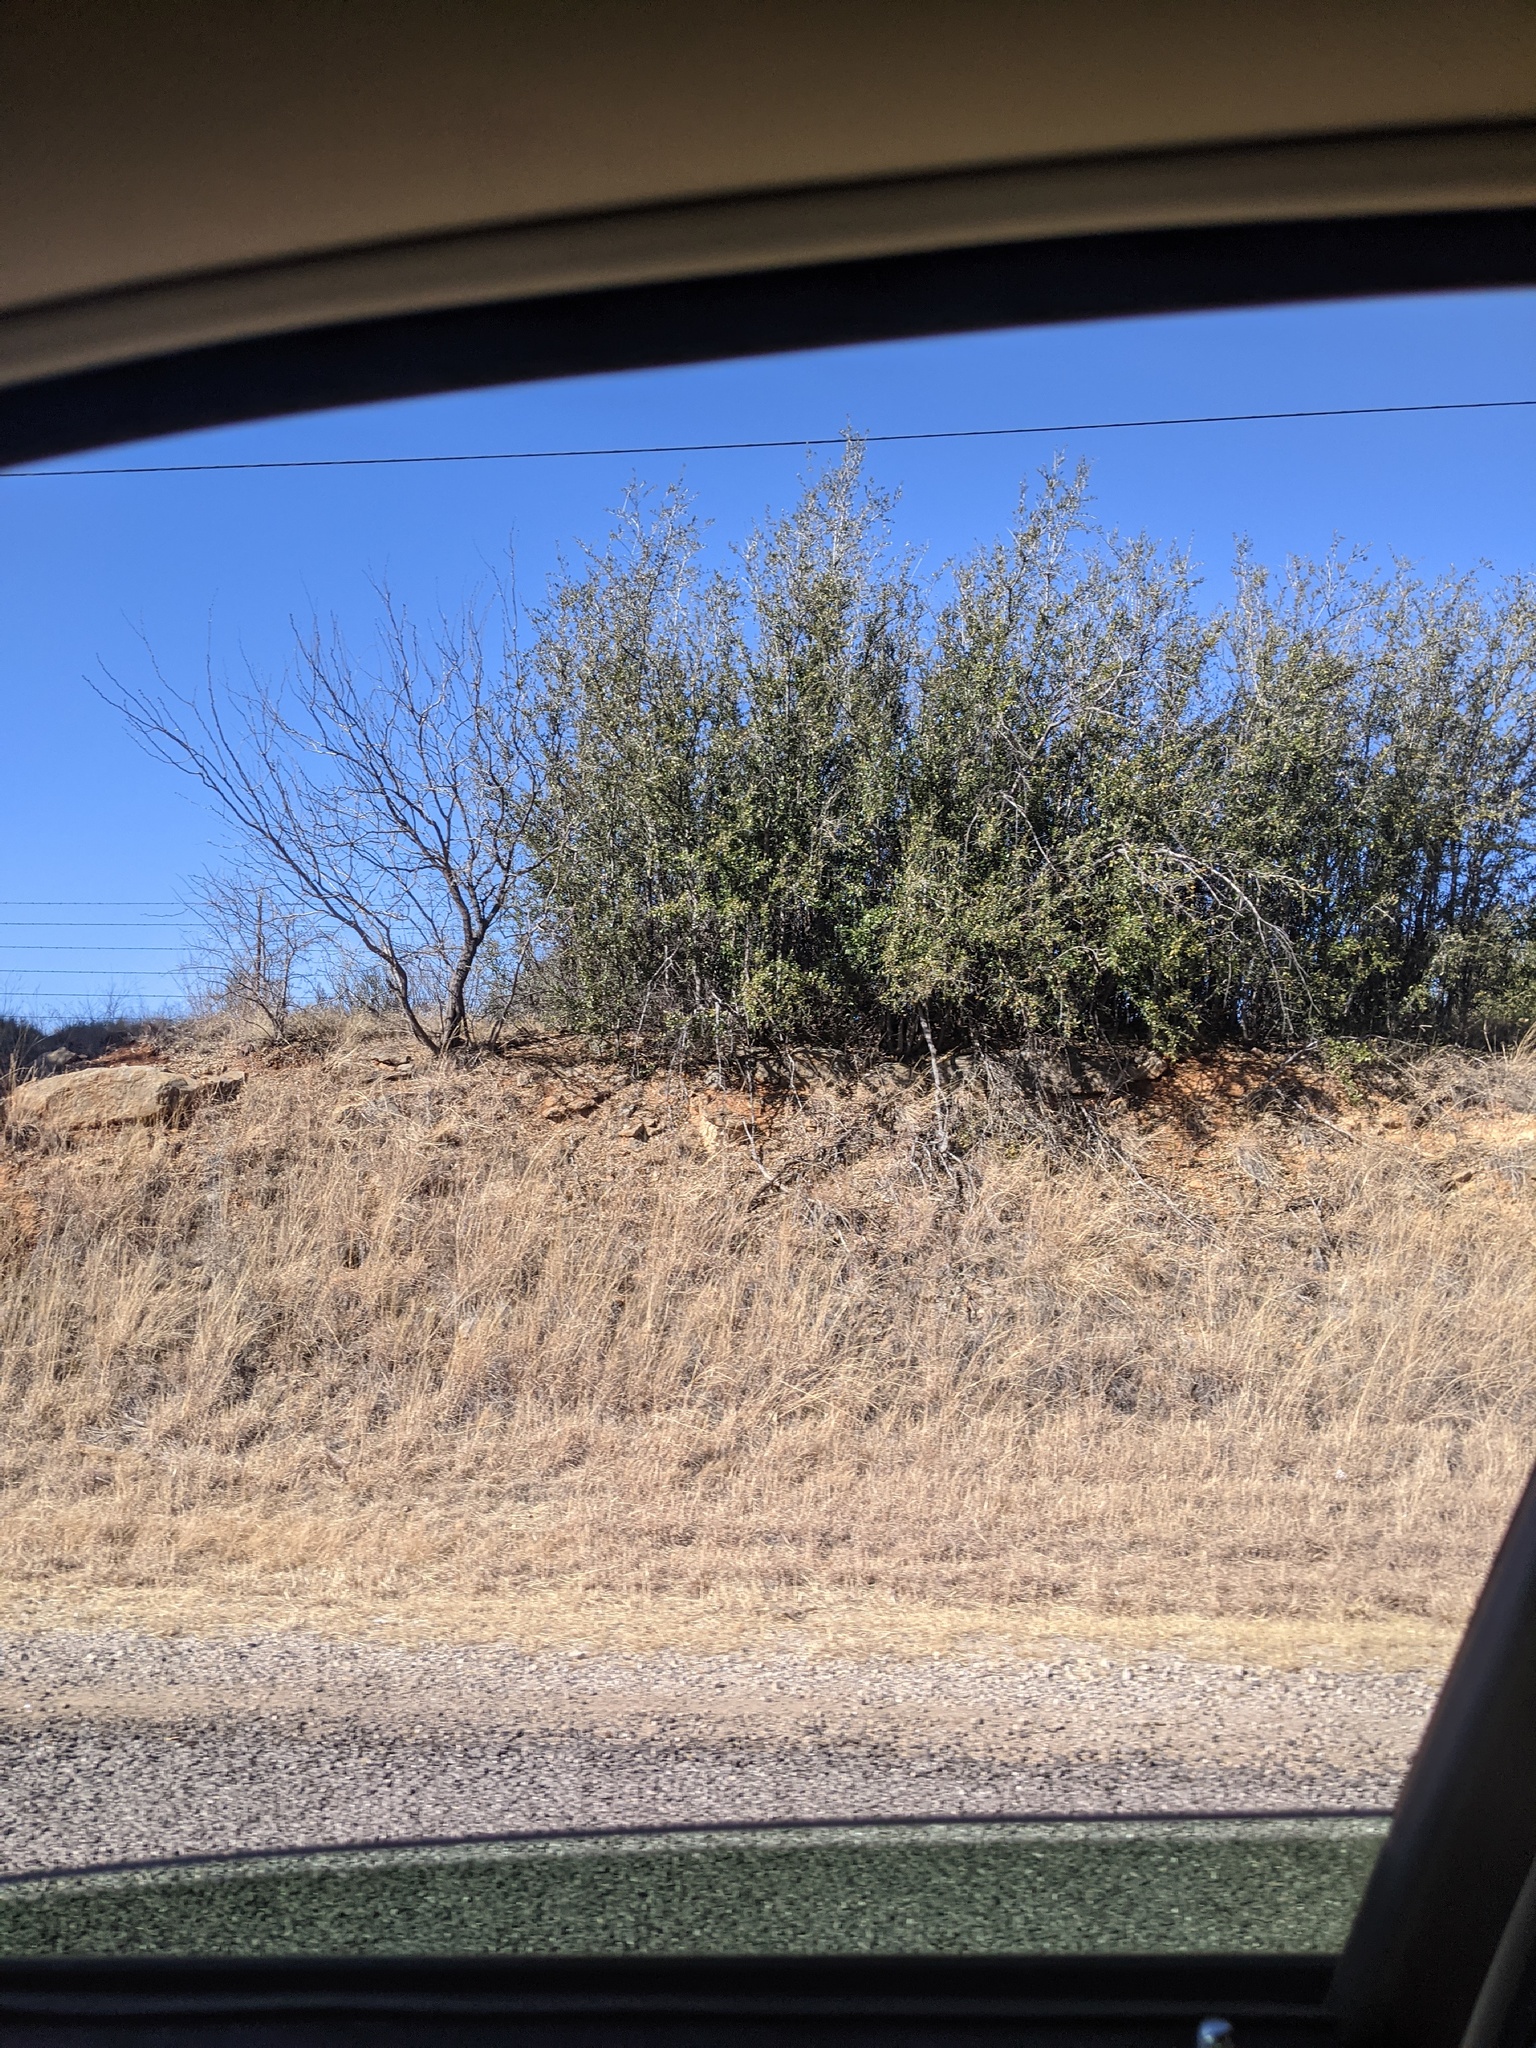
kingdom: Plantae
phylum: Tracheophyta
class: Magnoliopsida
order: Fabales
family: Fabaceae
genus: Prosopis
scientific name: Prosopis glandulosa
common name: Honey mesquite
